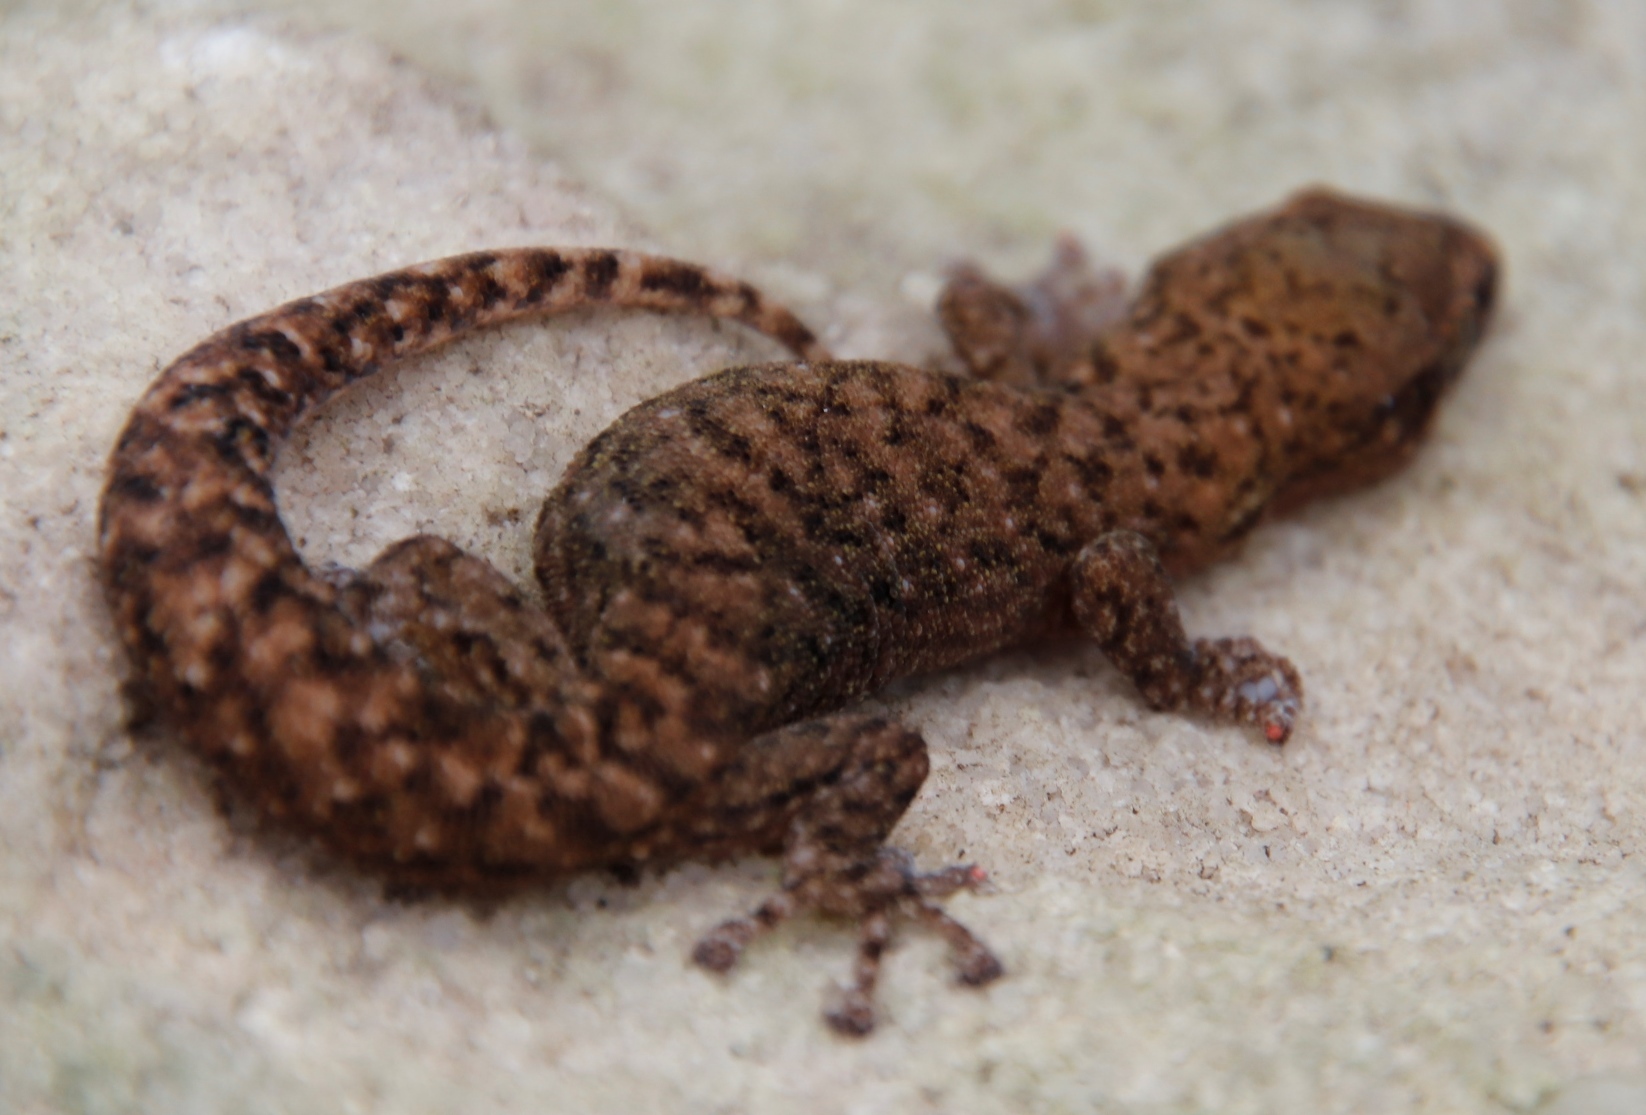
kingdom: Animalia
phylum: Chordata
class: Squamata
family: Gekkonidae
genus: Afrogecko
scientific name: Afrogecko porphyreus
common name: Marbled leaf-toed gecko
